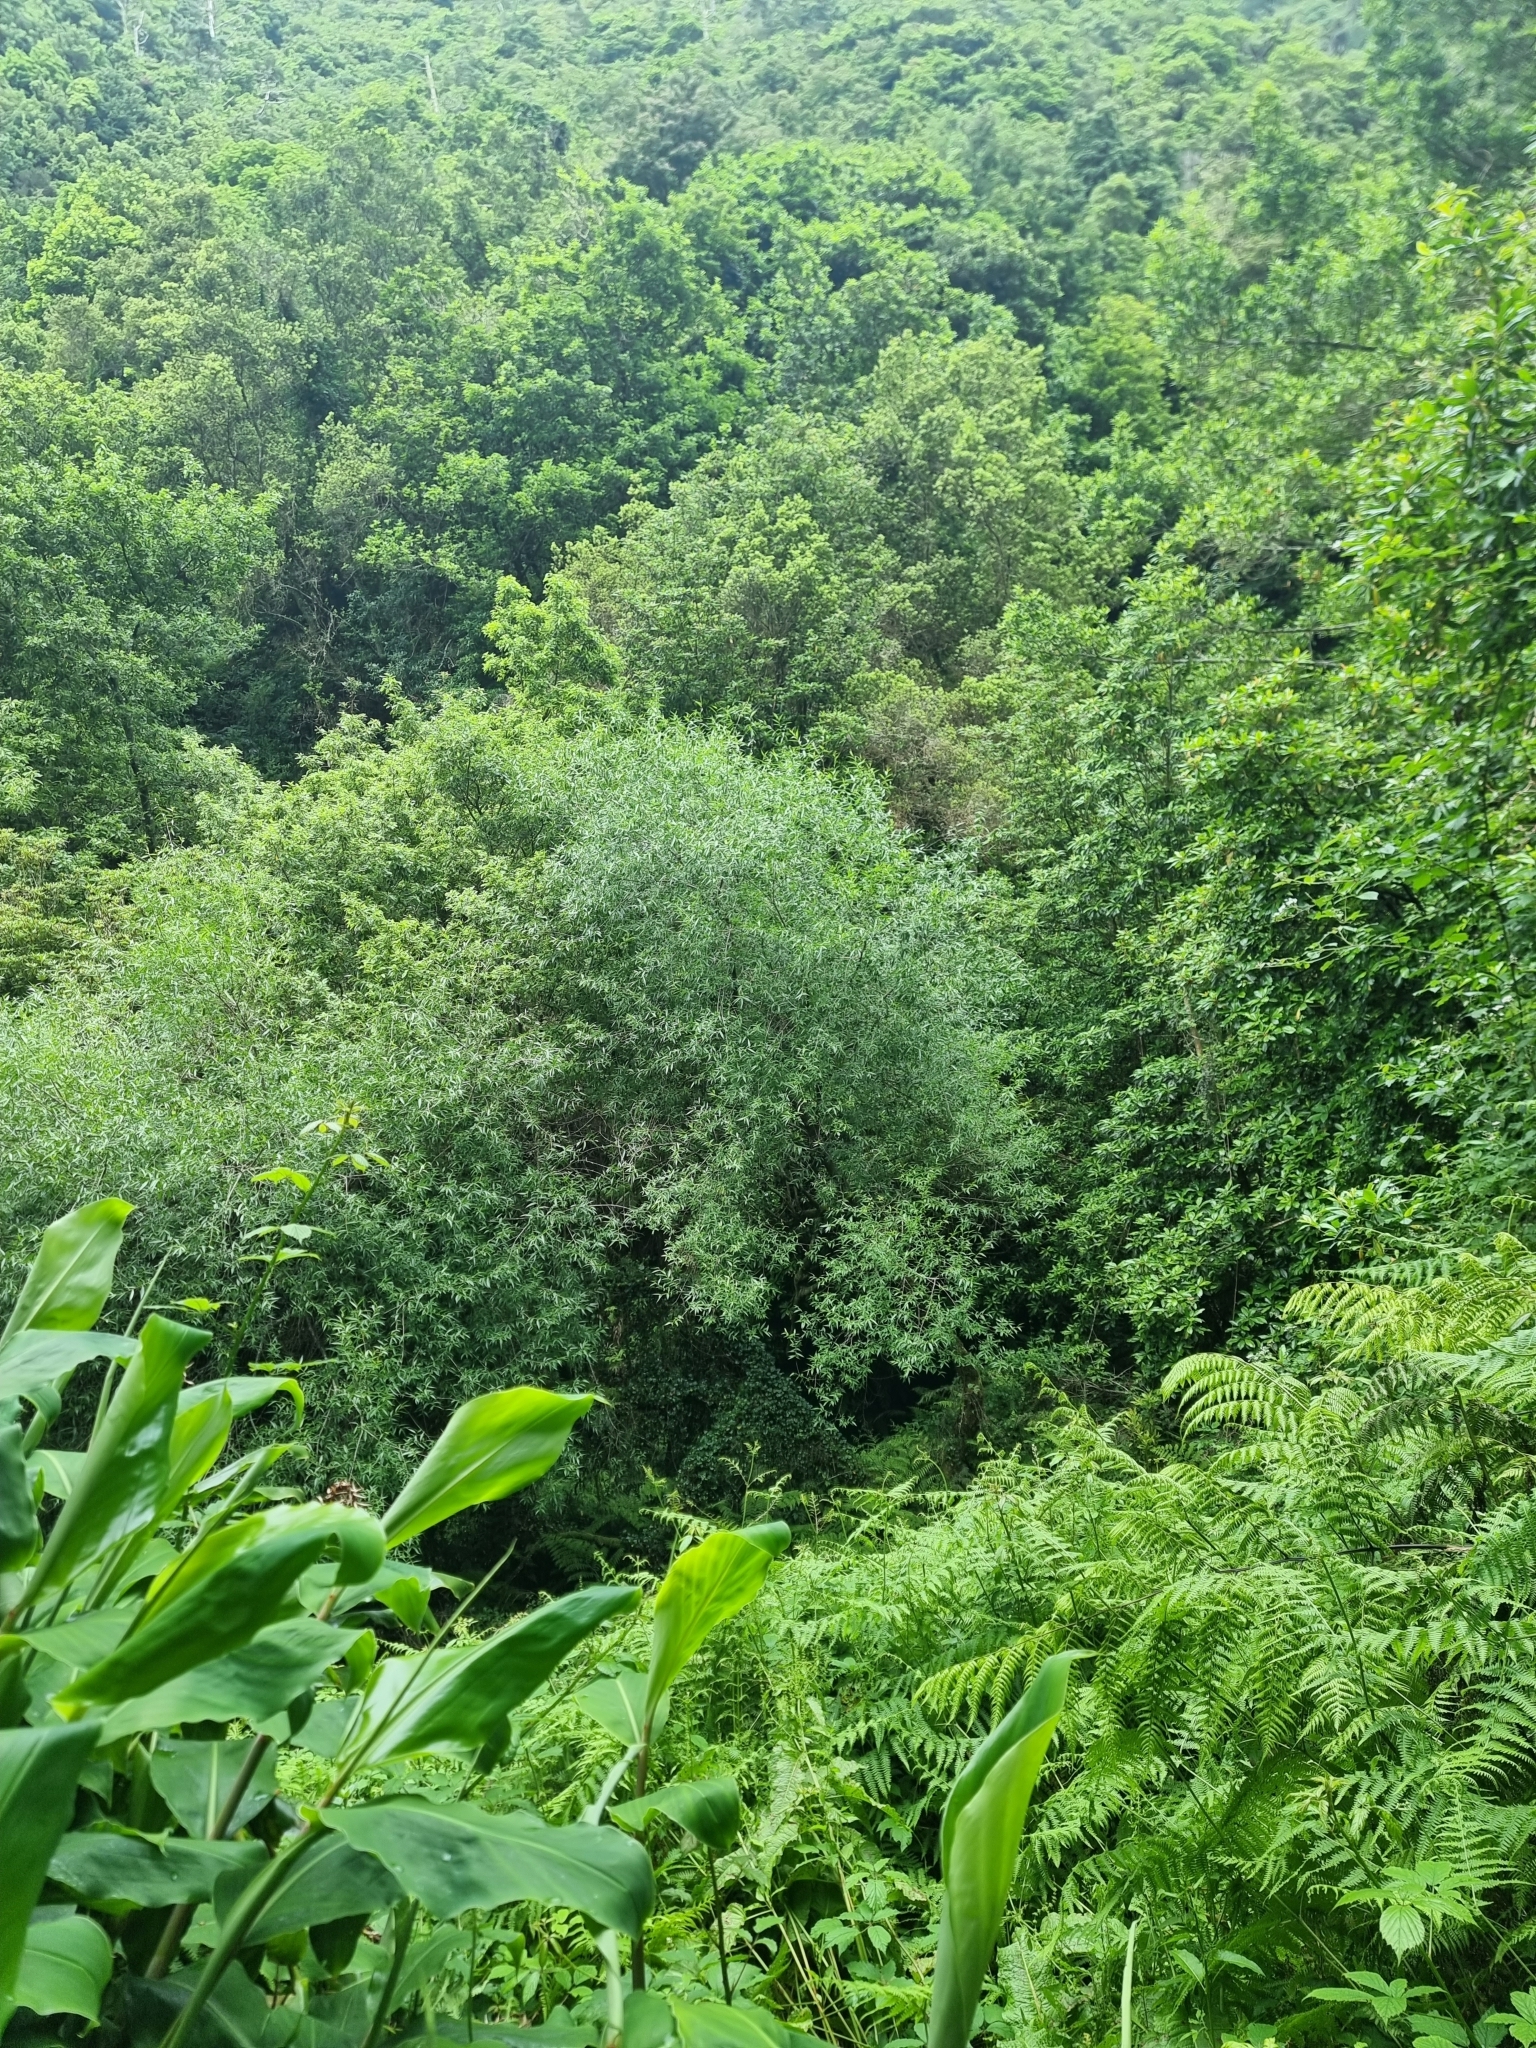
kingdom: Plantae
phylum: Tracheophyta
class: Magnoliopsida
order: Malpighiales
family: Salicaceae
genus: Salix
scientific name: Salix canariensis
